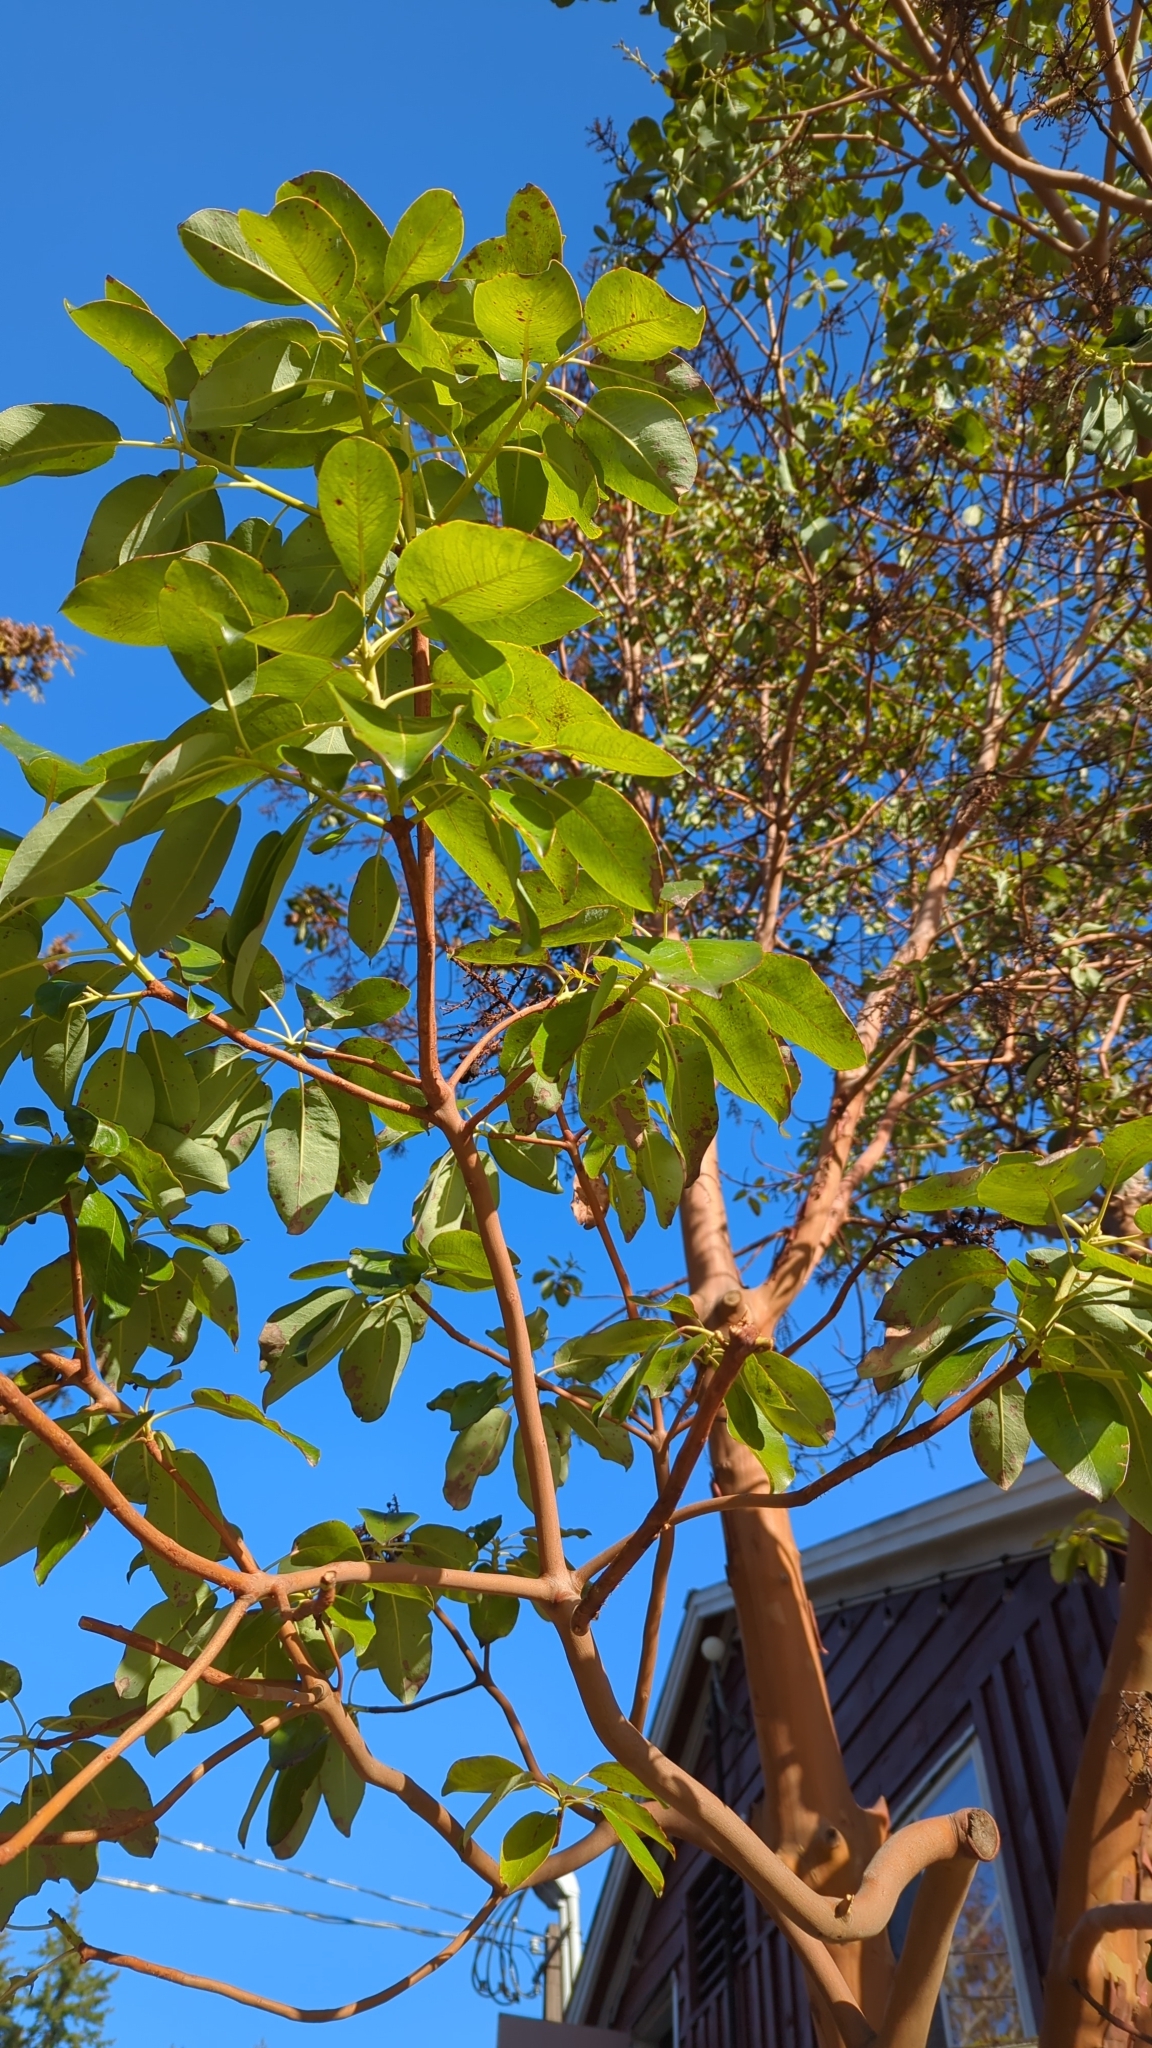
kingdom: Plantae
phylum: Tracheophyta
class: Magnoliopsida
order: Ericales
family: Ericaceae
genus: Arbutus
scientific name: Arbutus menziesii
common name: Pacific madrone
